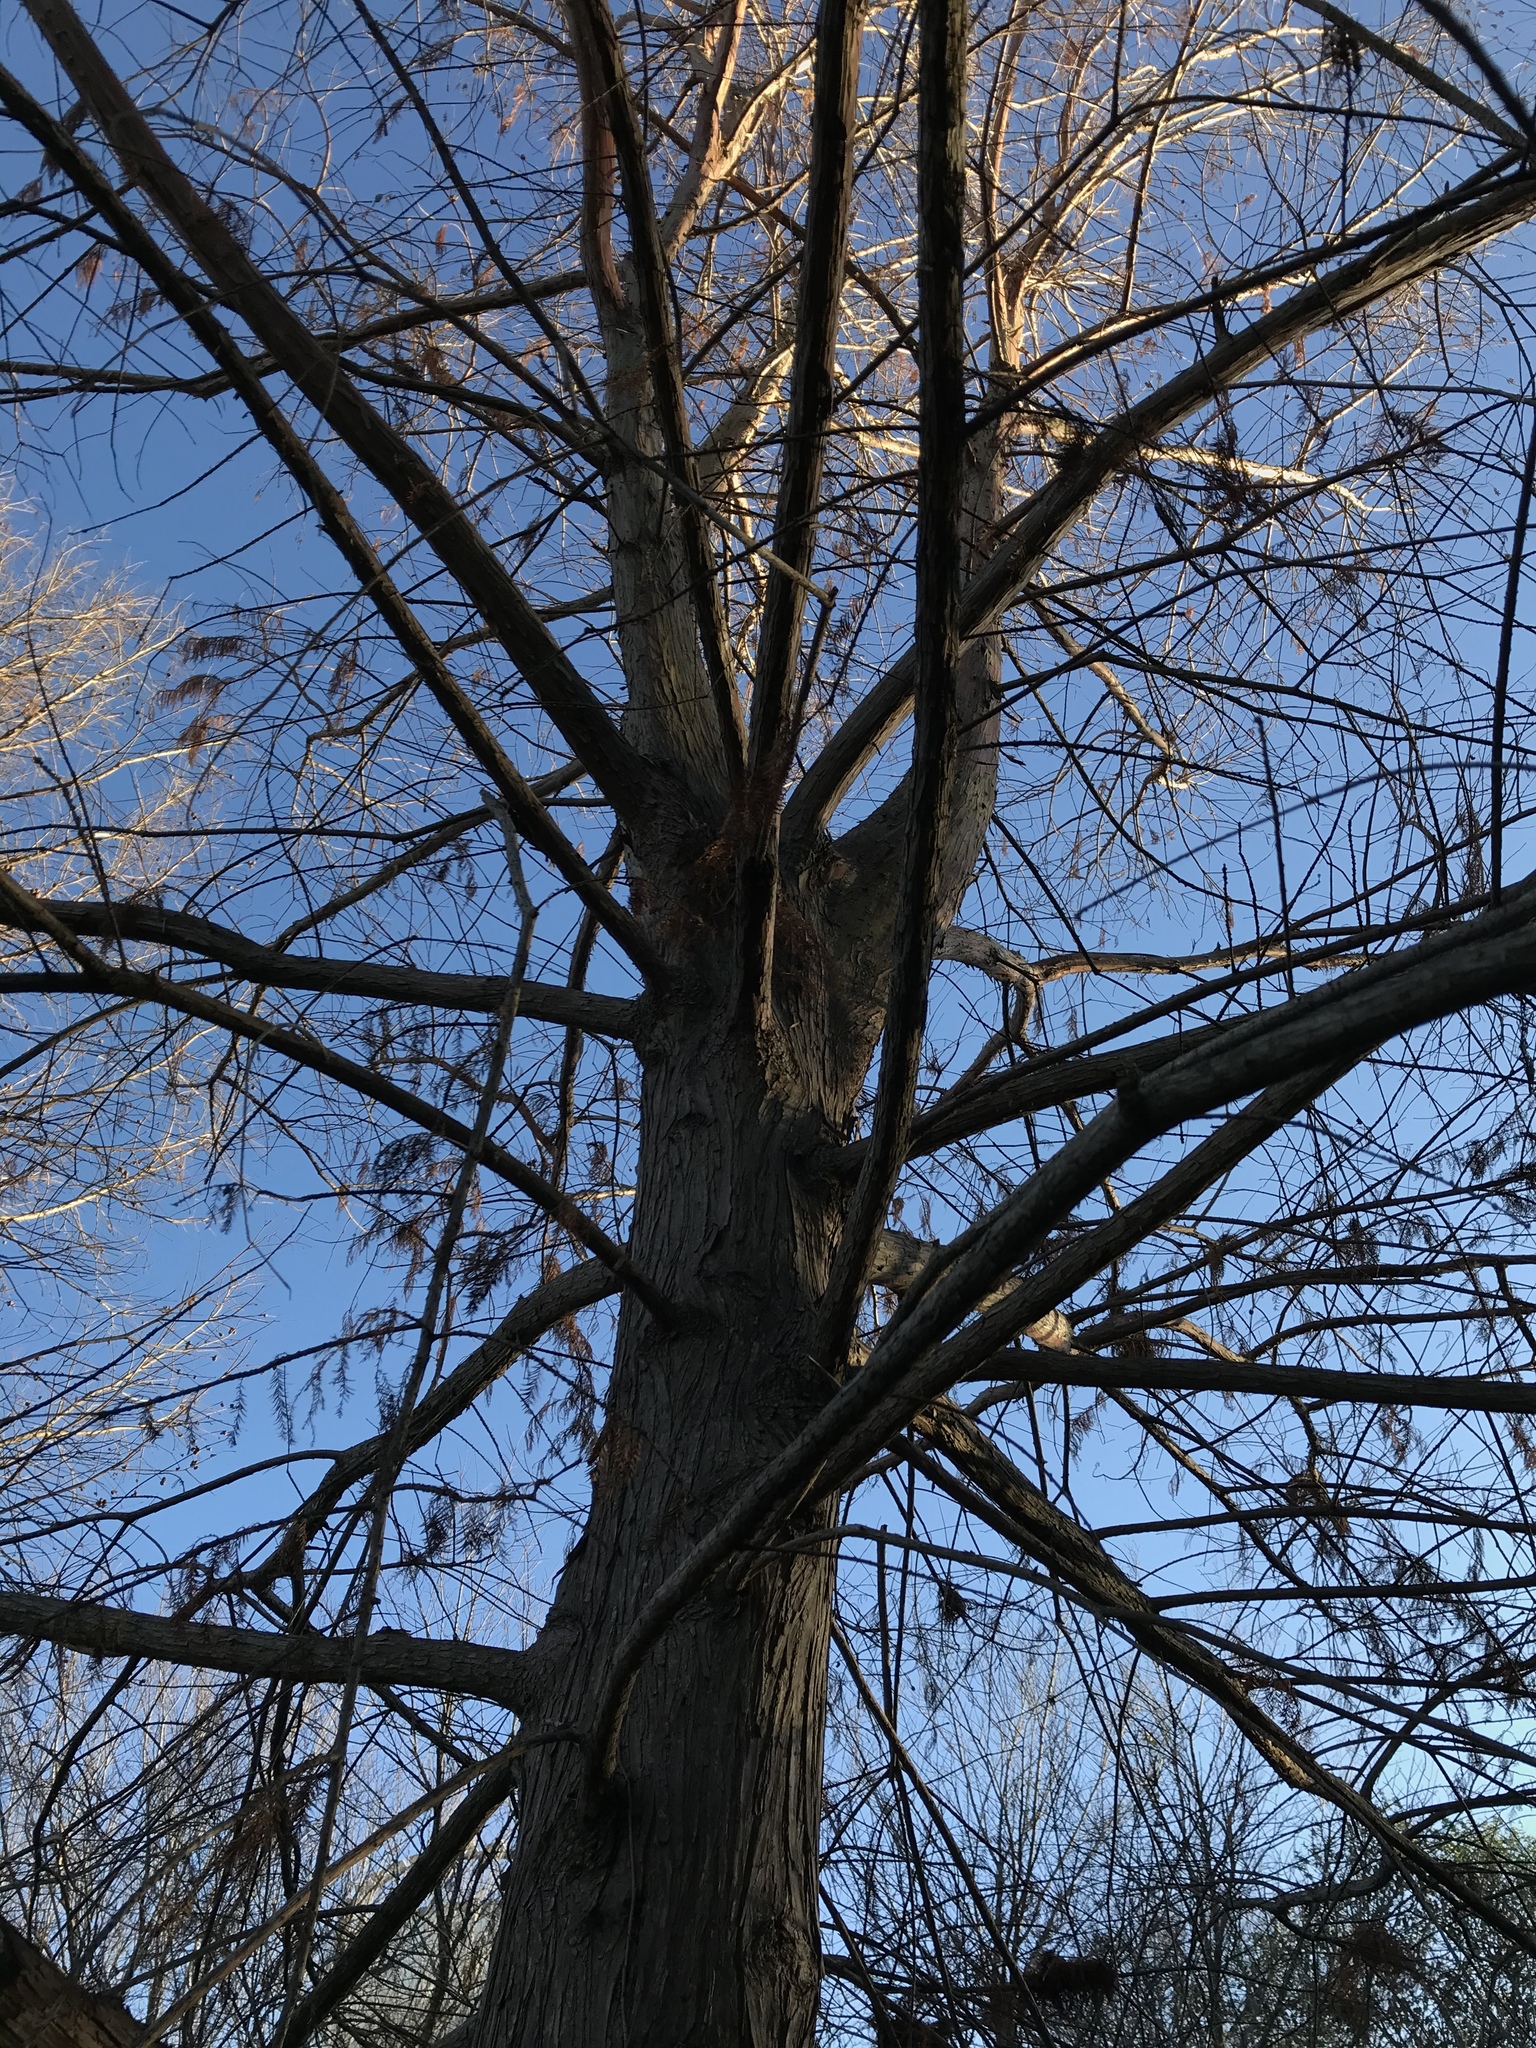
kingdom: Plantae
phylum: Tracheophyta
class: Pinopsida
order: Pinales
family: Cupressaceae
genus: Taxodium
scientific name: Taxodium distichum
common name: Bald cypress
